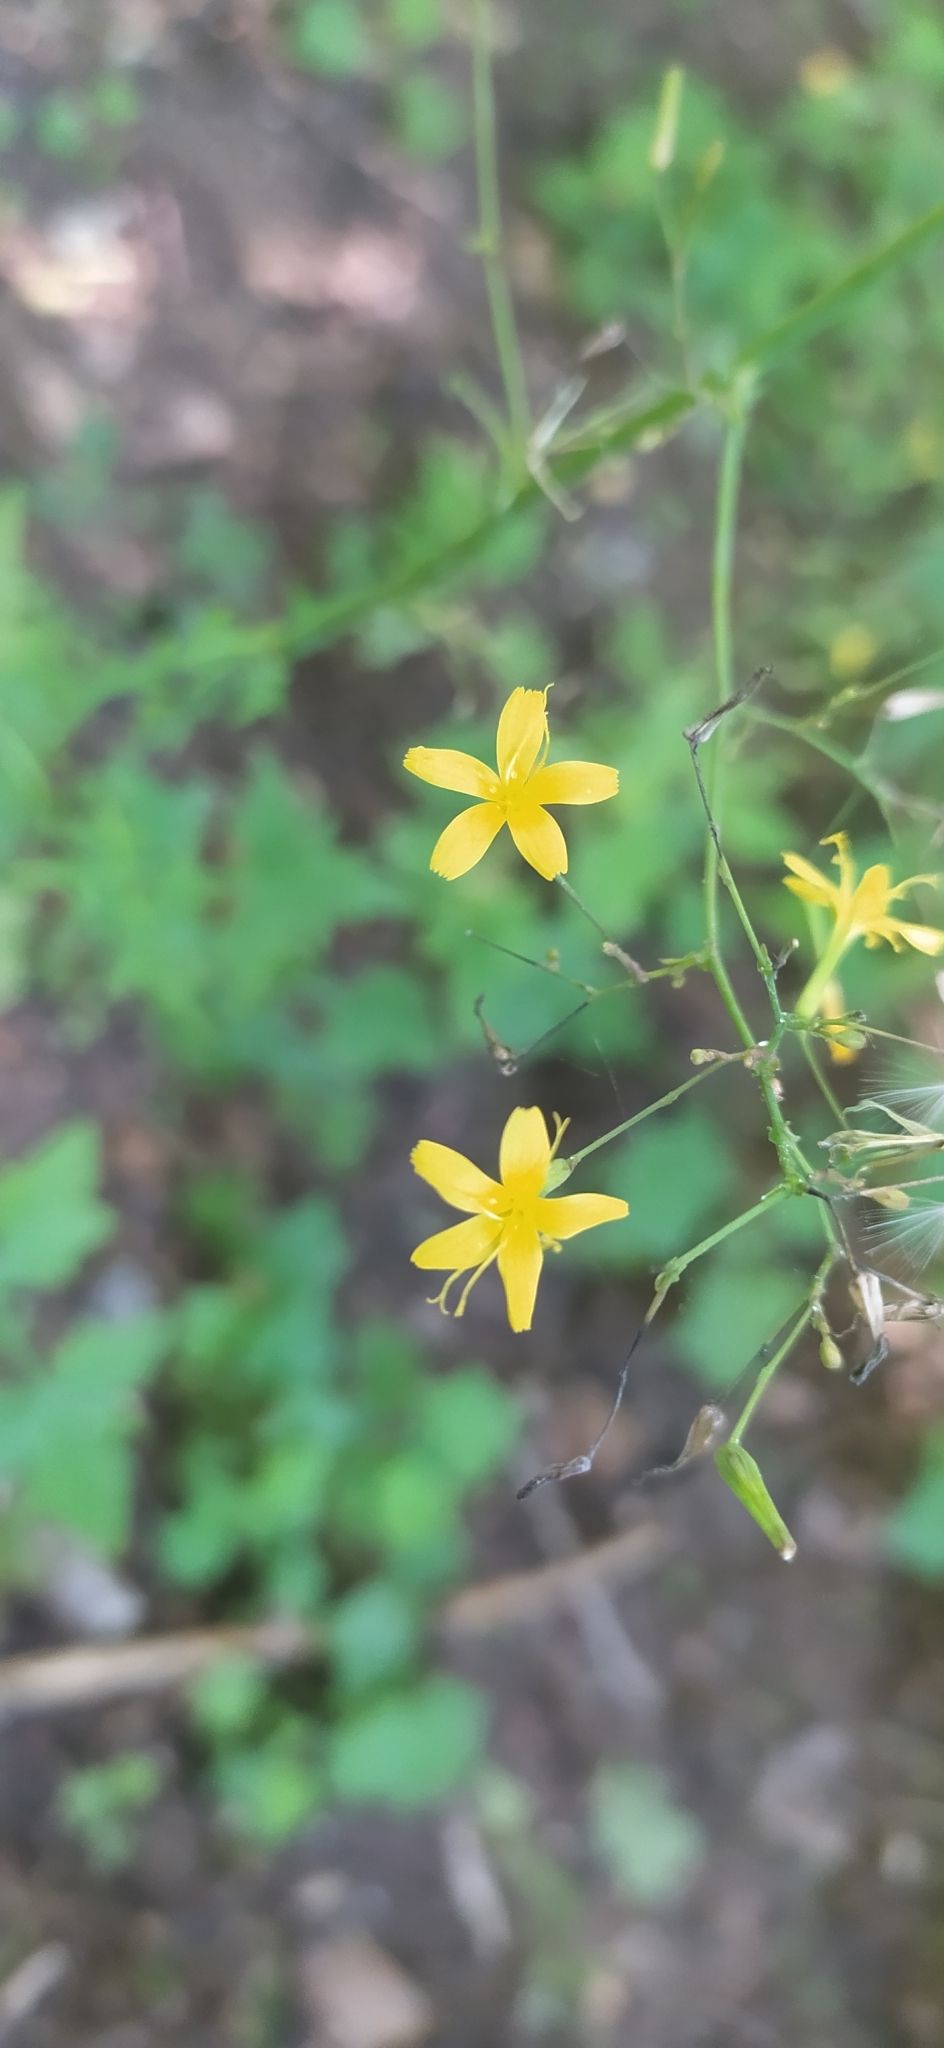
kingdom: Plantae
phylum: Tracheophyta
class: Magnoliopsida
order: Asterales
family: Asteraceae
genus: Mycelis
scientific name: Mycelis muralis
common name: Wall lettuce
